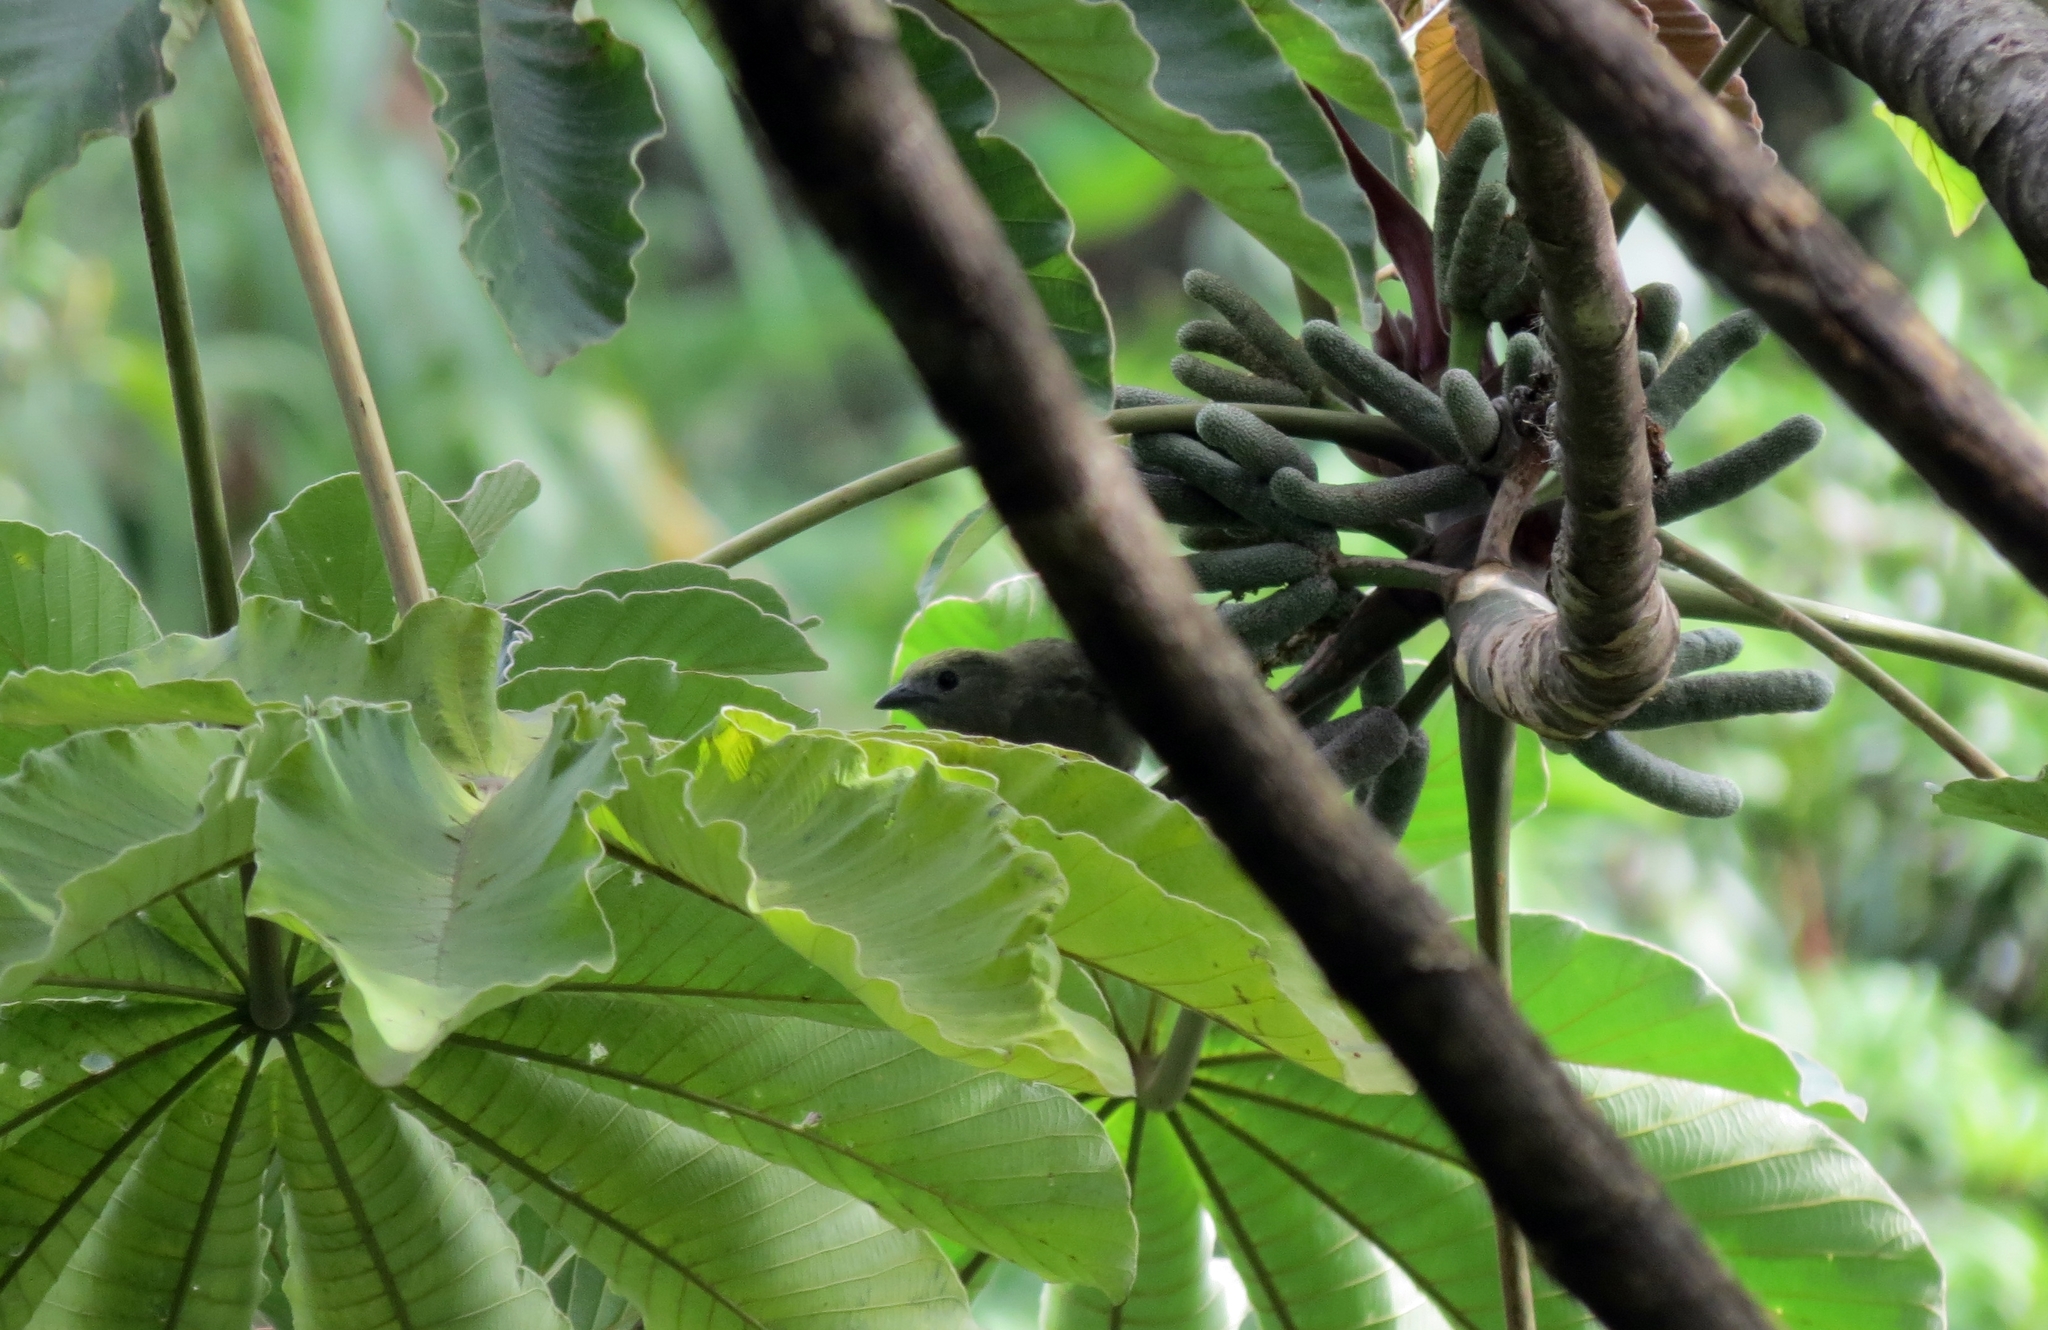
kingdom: Animalia
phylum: Chordata
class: Aves
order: Passeriformes
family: Thraupidae
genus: Thraupis
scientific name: Thraupis palmarum
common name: Palm tanager
